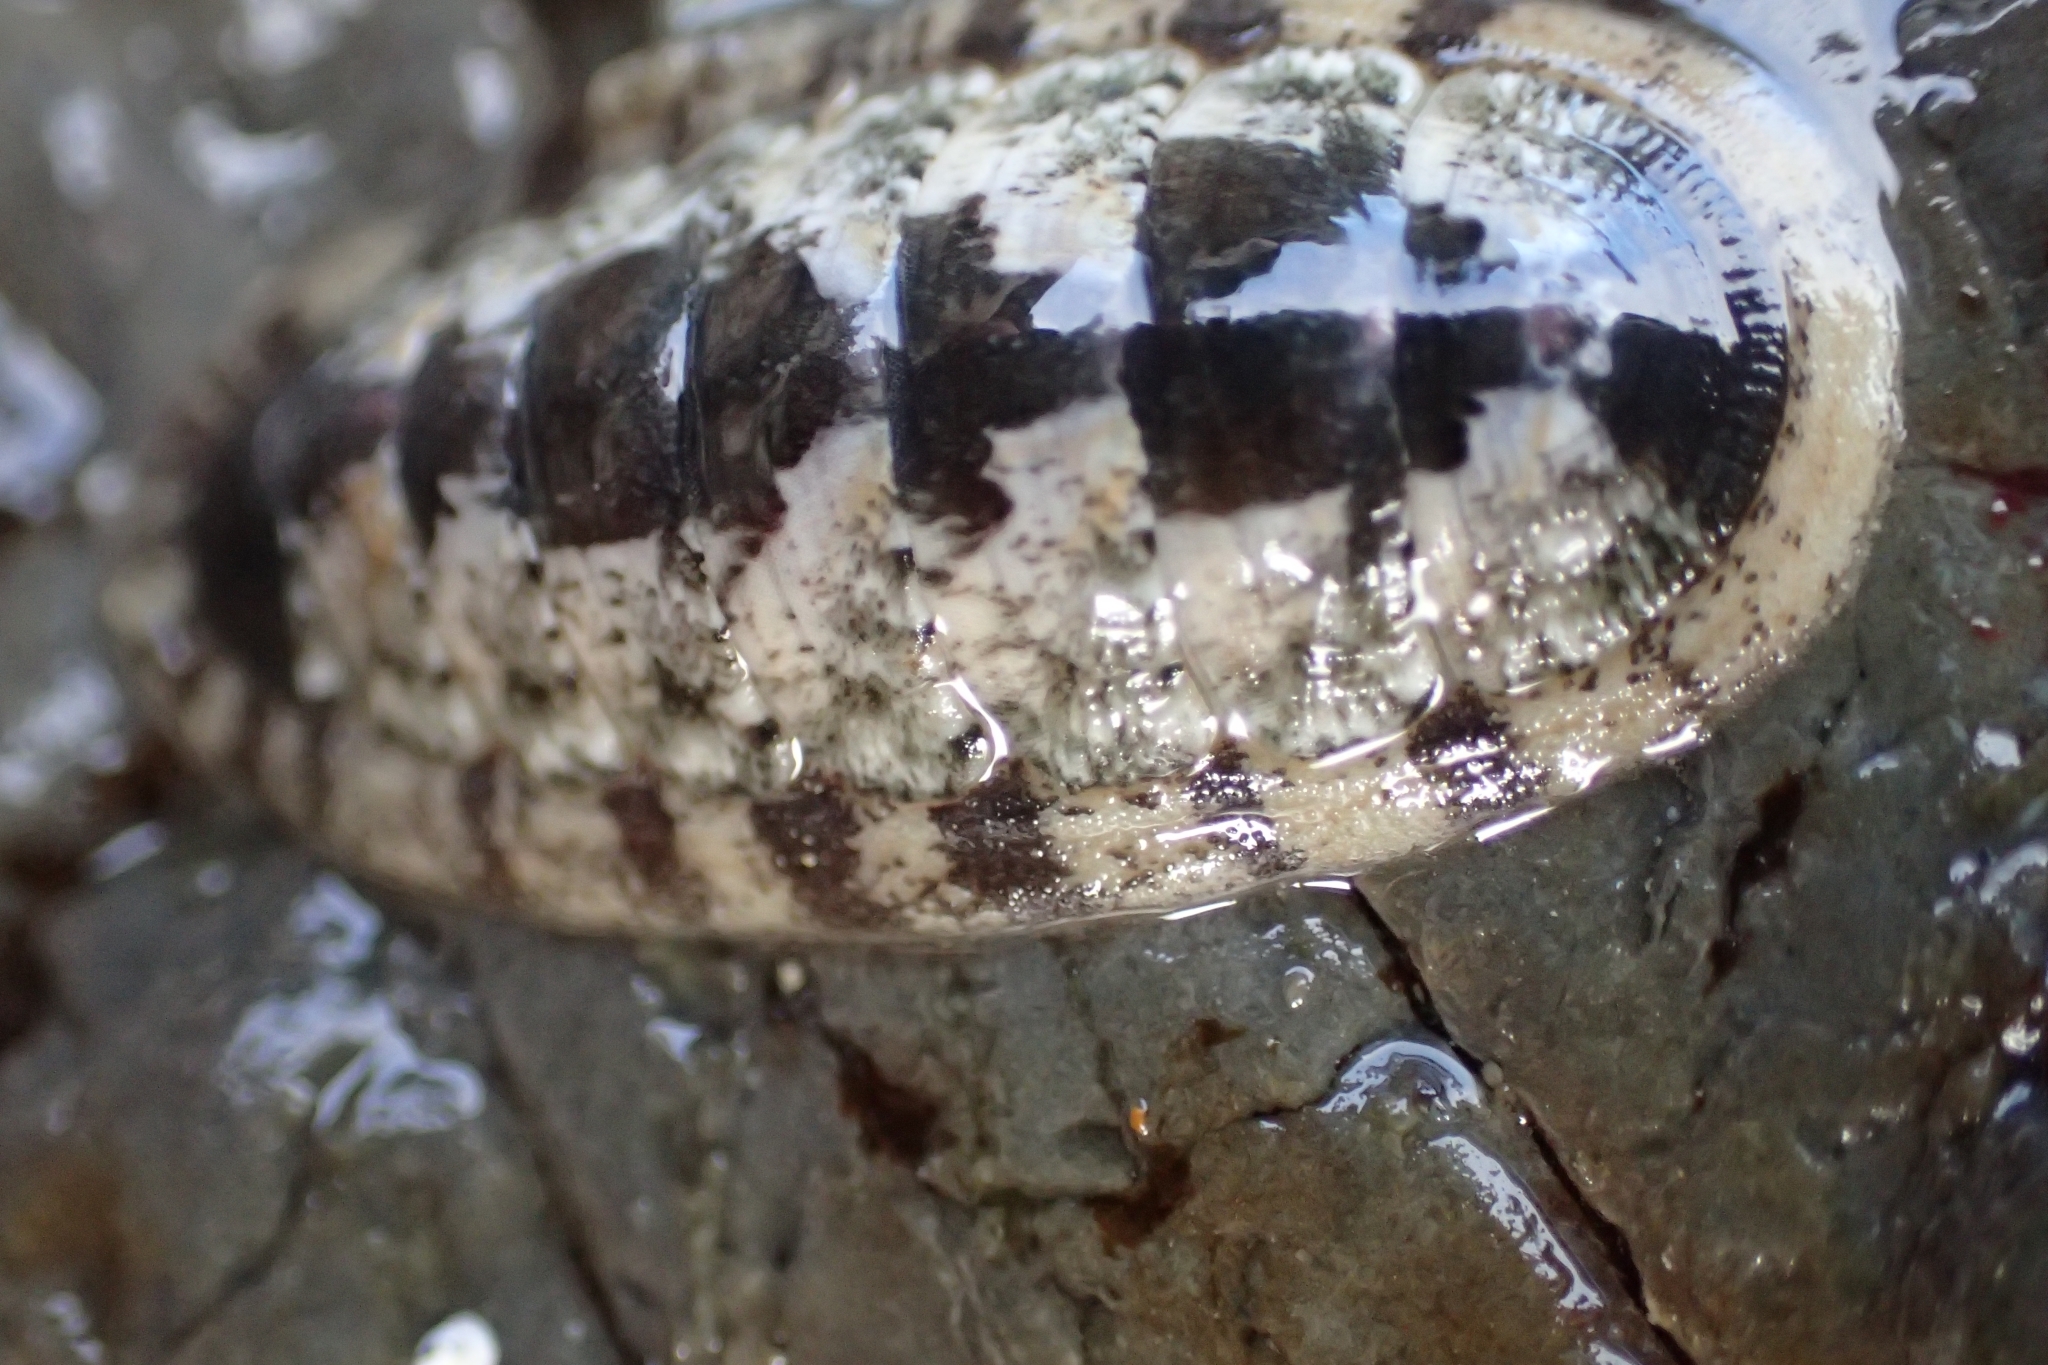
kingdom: Animalia
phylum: Mollusca
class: Polyplacophora
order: Chitonida
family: Ischnochitonidae
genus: Ischnochiton
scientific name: Ischnochiton maorianus
